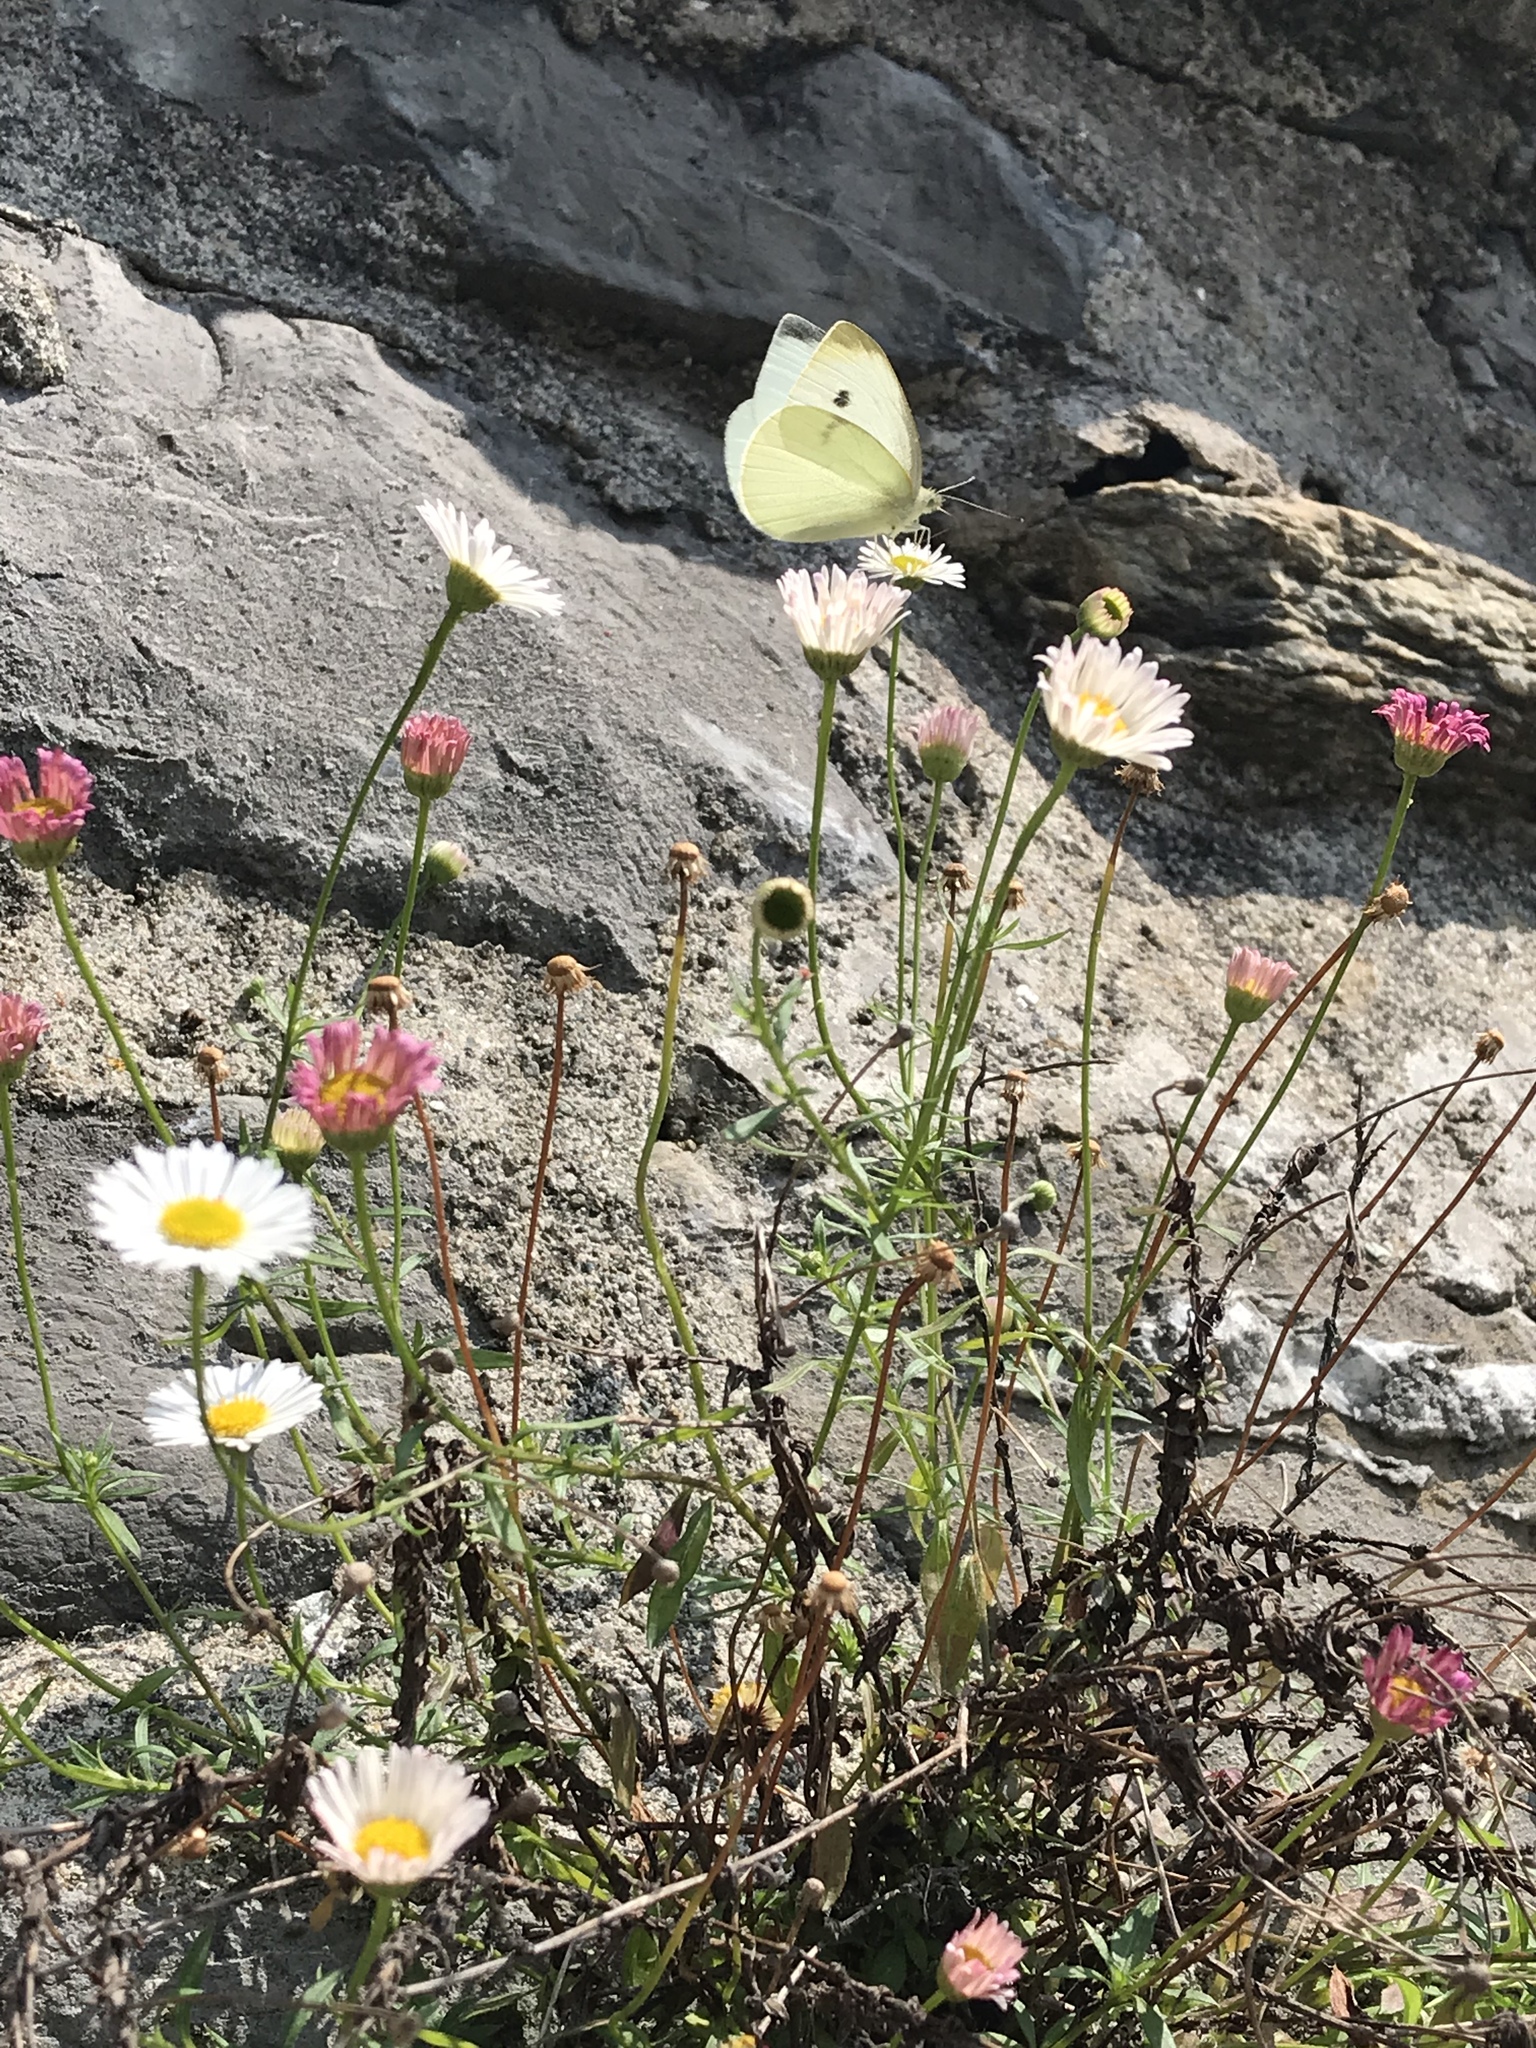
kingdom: Animalia
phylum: Arthropoda
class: Insecta
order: Lepidoptera
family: Pieridae
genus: Pieris
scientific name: Pieris rapae
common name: Small white
